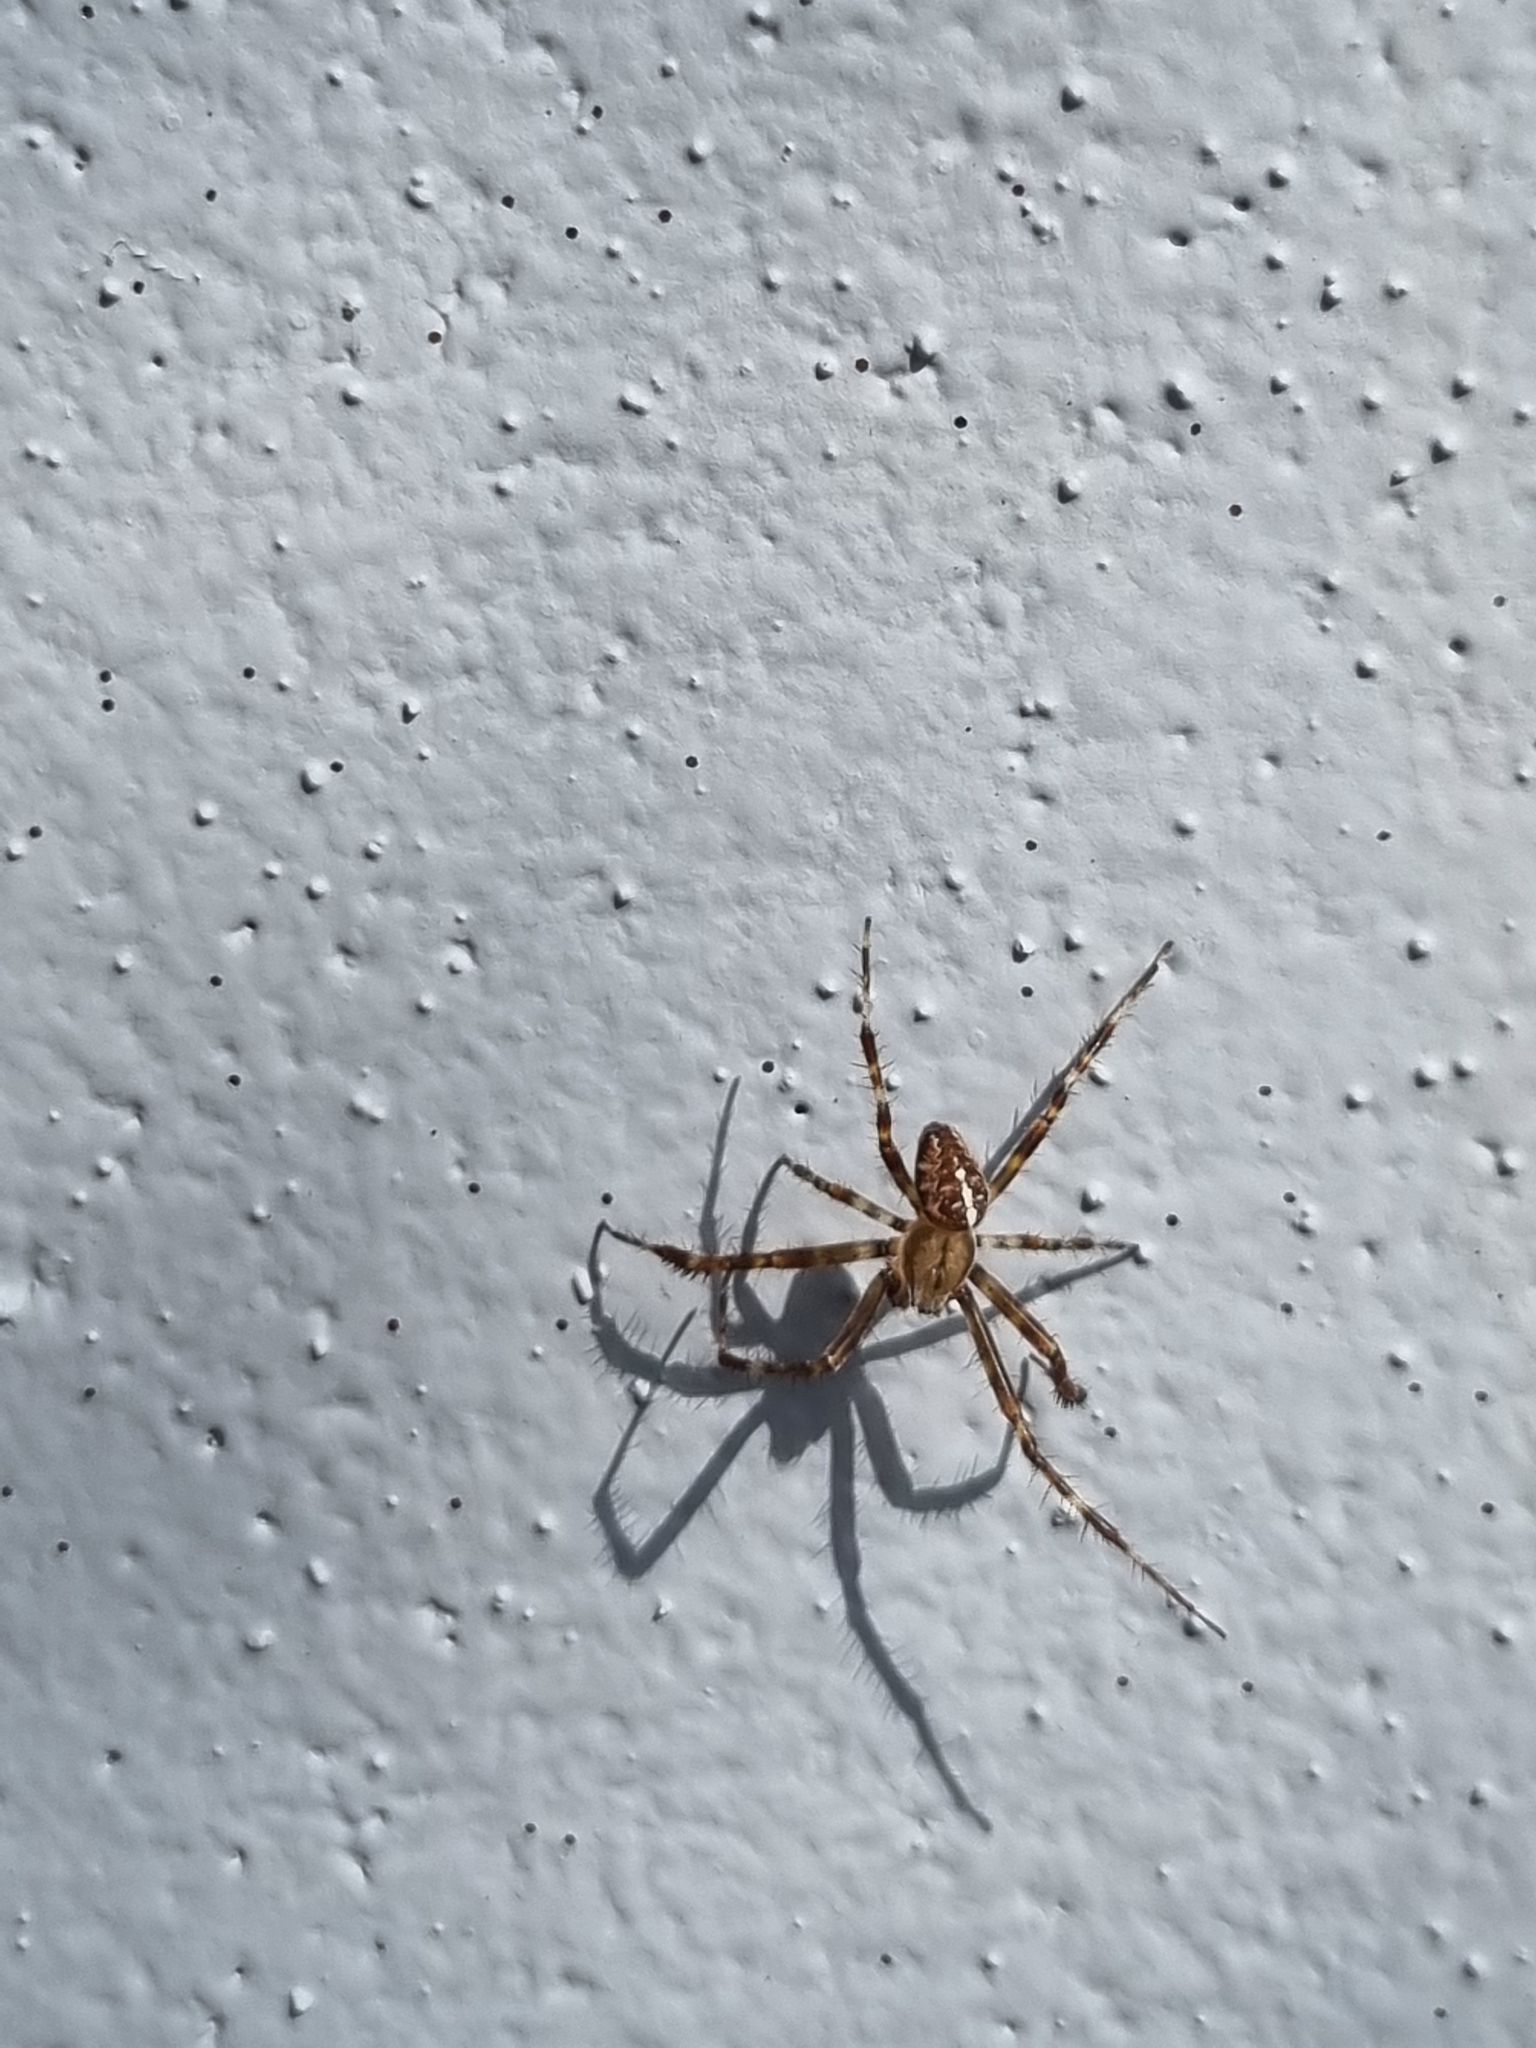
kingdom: Animalia
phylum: Arthropoda
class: Arachnida
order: Araneae
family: Araneidae
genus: Araneus
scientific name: Araneus diadematus
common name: Cross orbweaver
